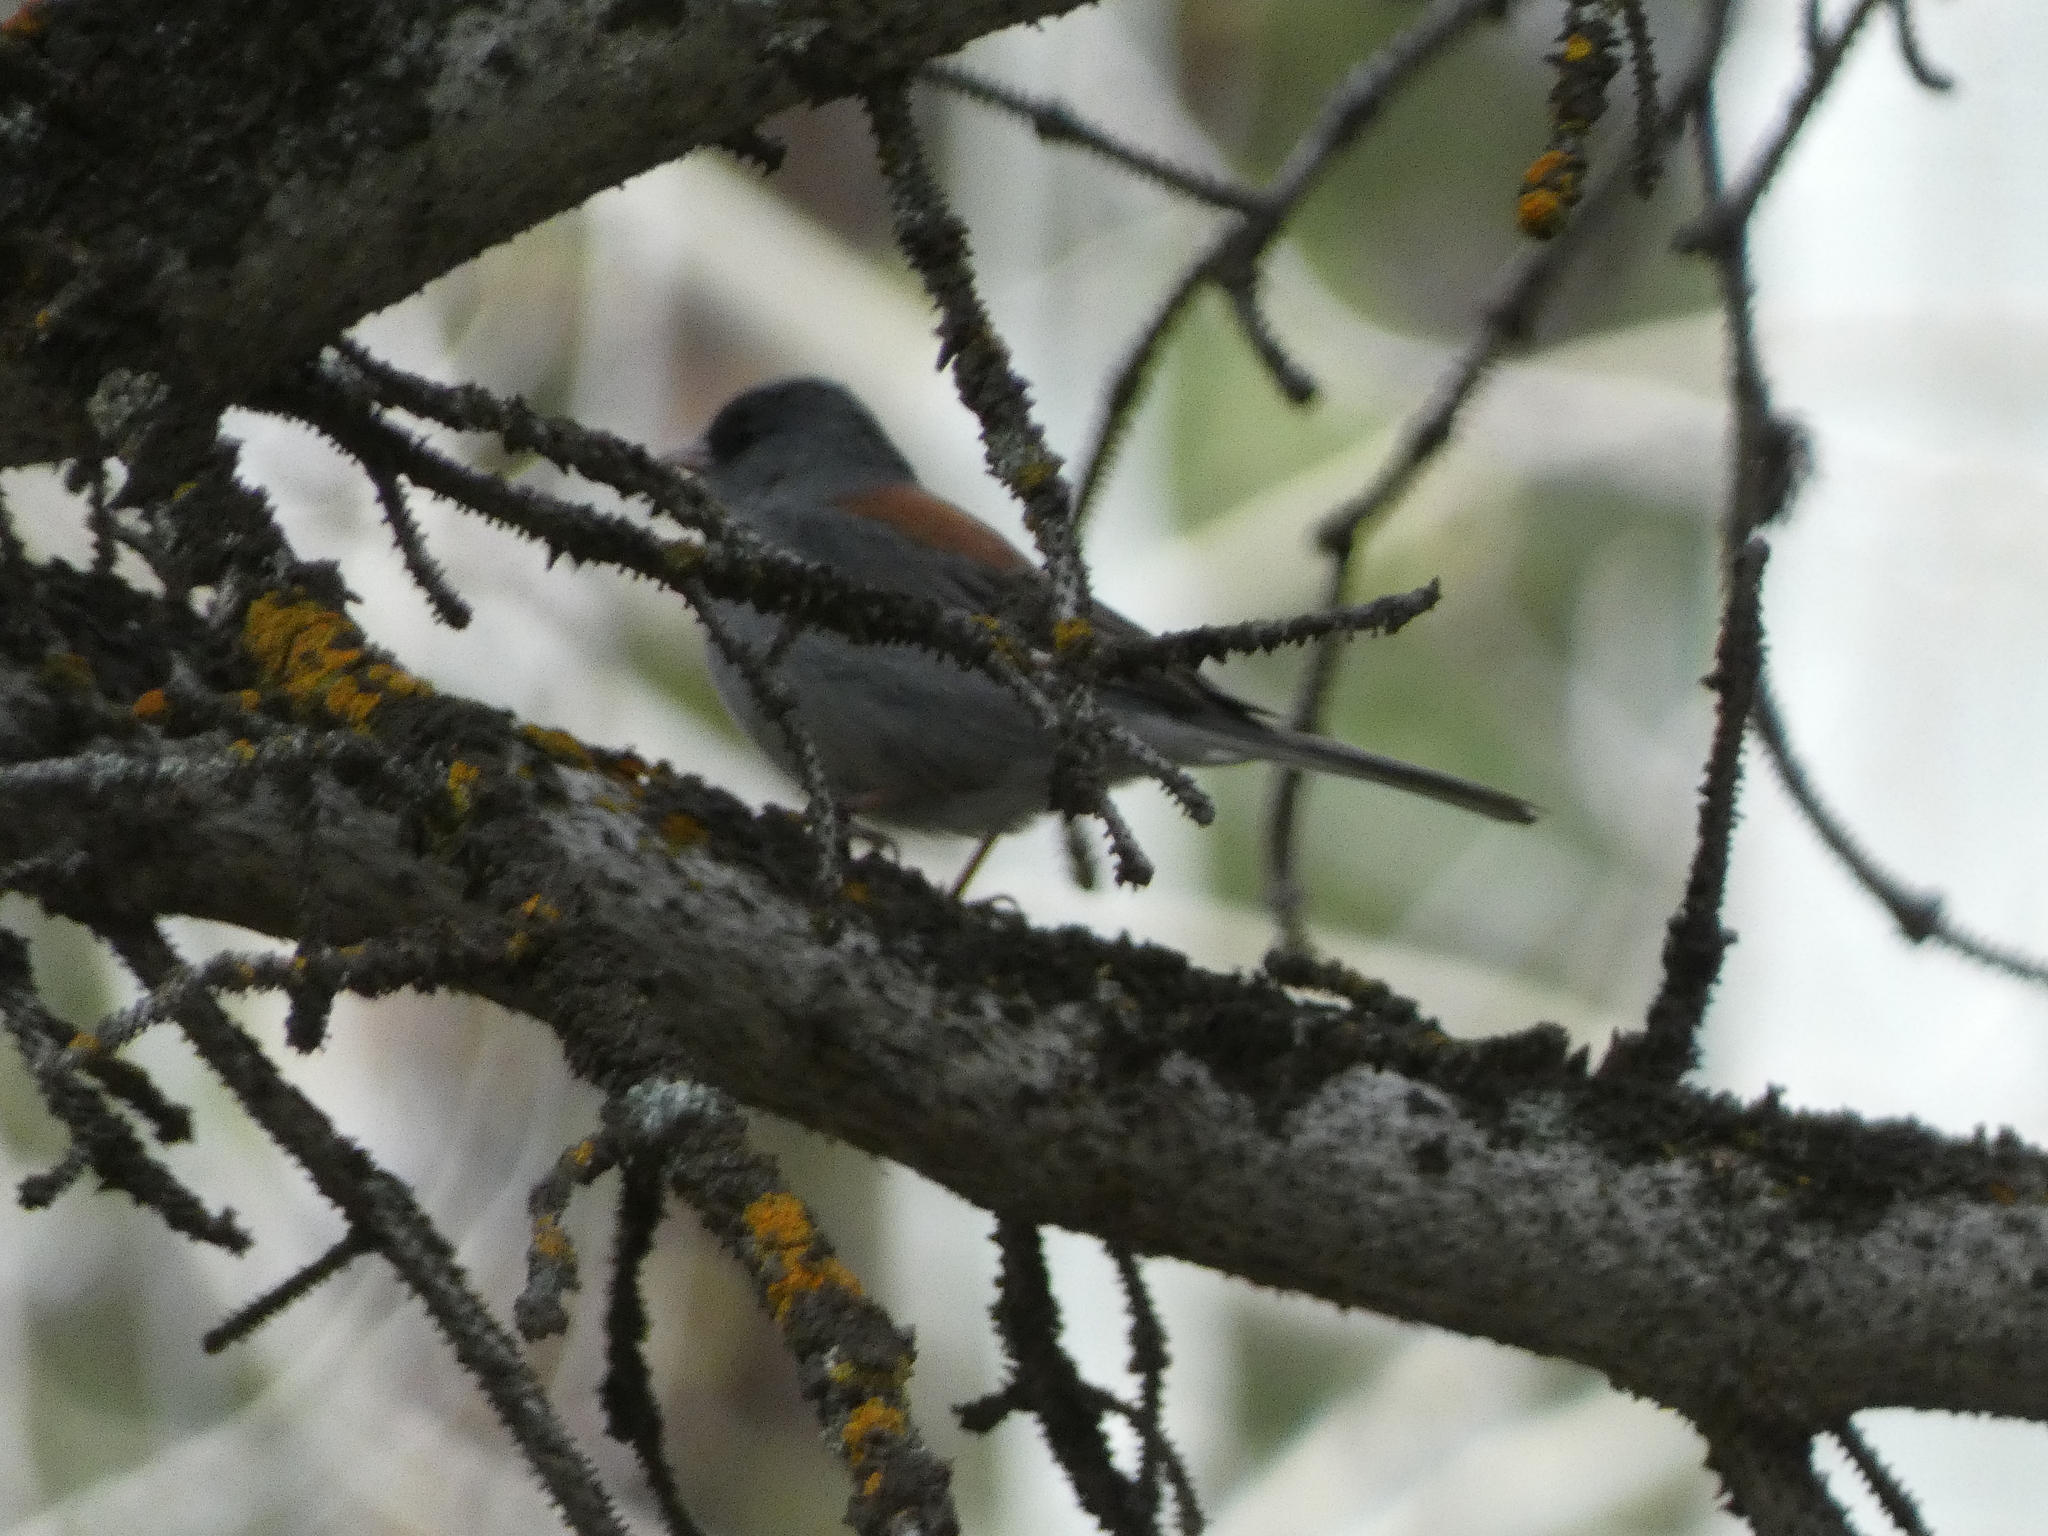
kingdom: Animalia
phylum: Chordata
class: Aves
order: Passeriformes
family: Passerellidae
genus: Junco
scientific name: Junco hyemalis
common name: Dark-eyed junco
